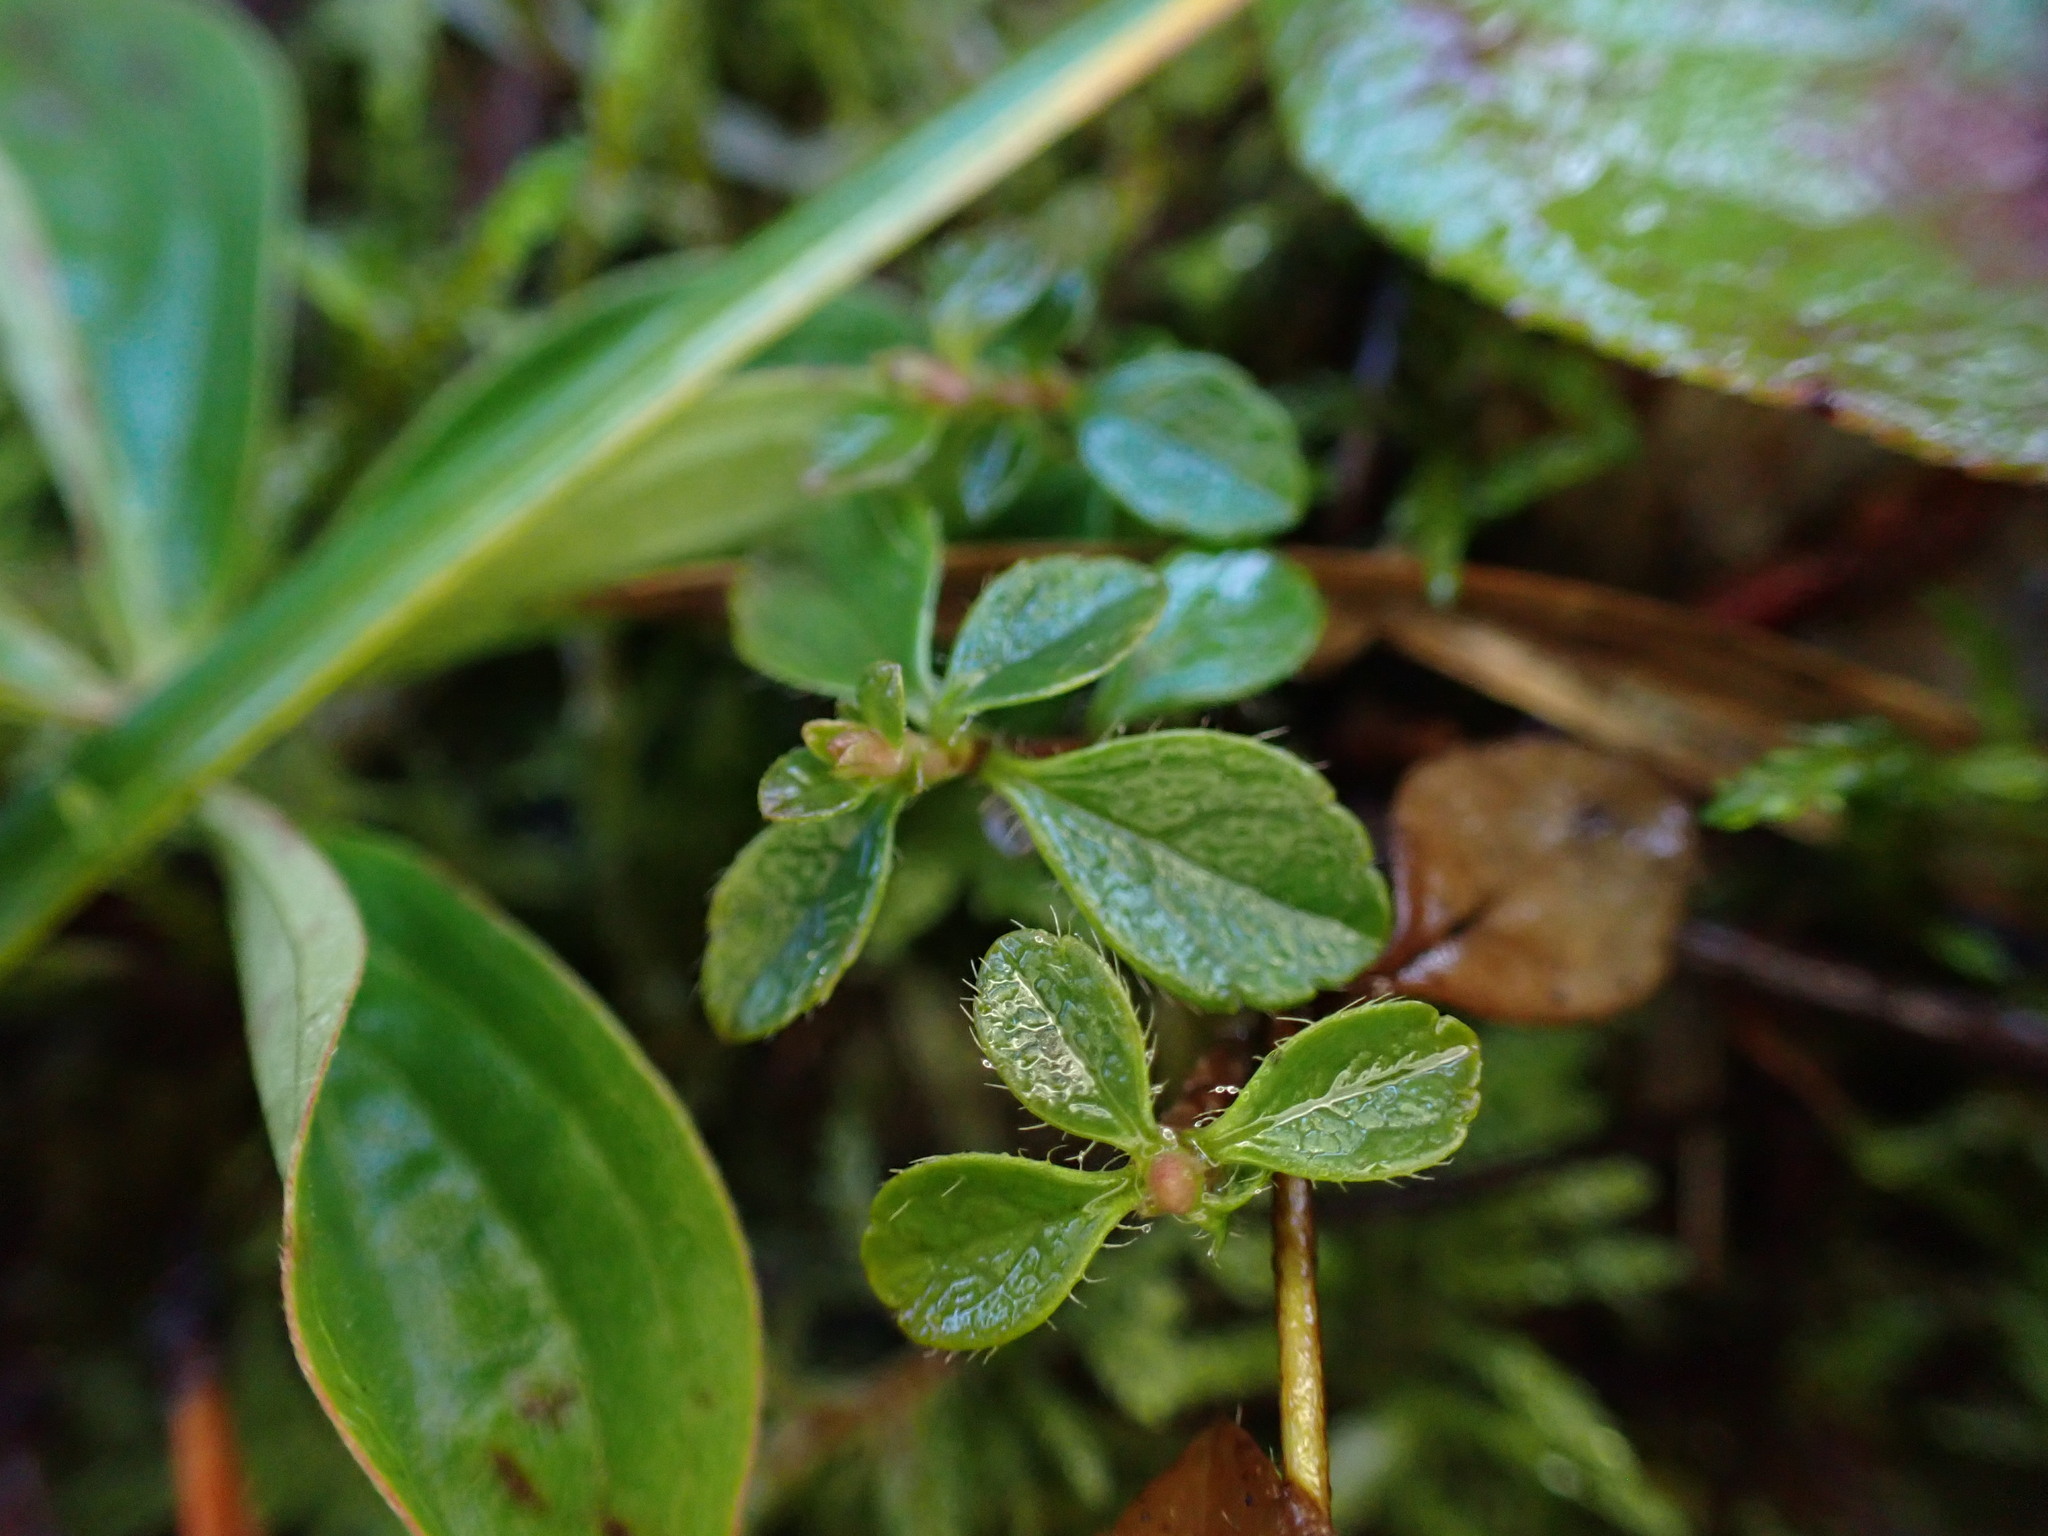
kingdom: Plantae
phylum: Tracheophyta
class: Magnoliopsida
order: Dipsacales
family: Caprifoliaceae
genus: Linnaea
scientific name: Linnaea borealis
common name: Twinflower
